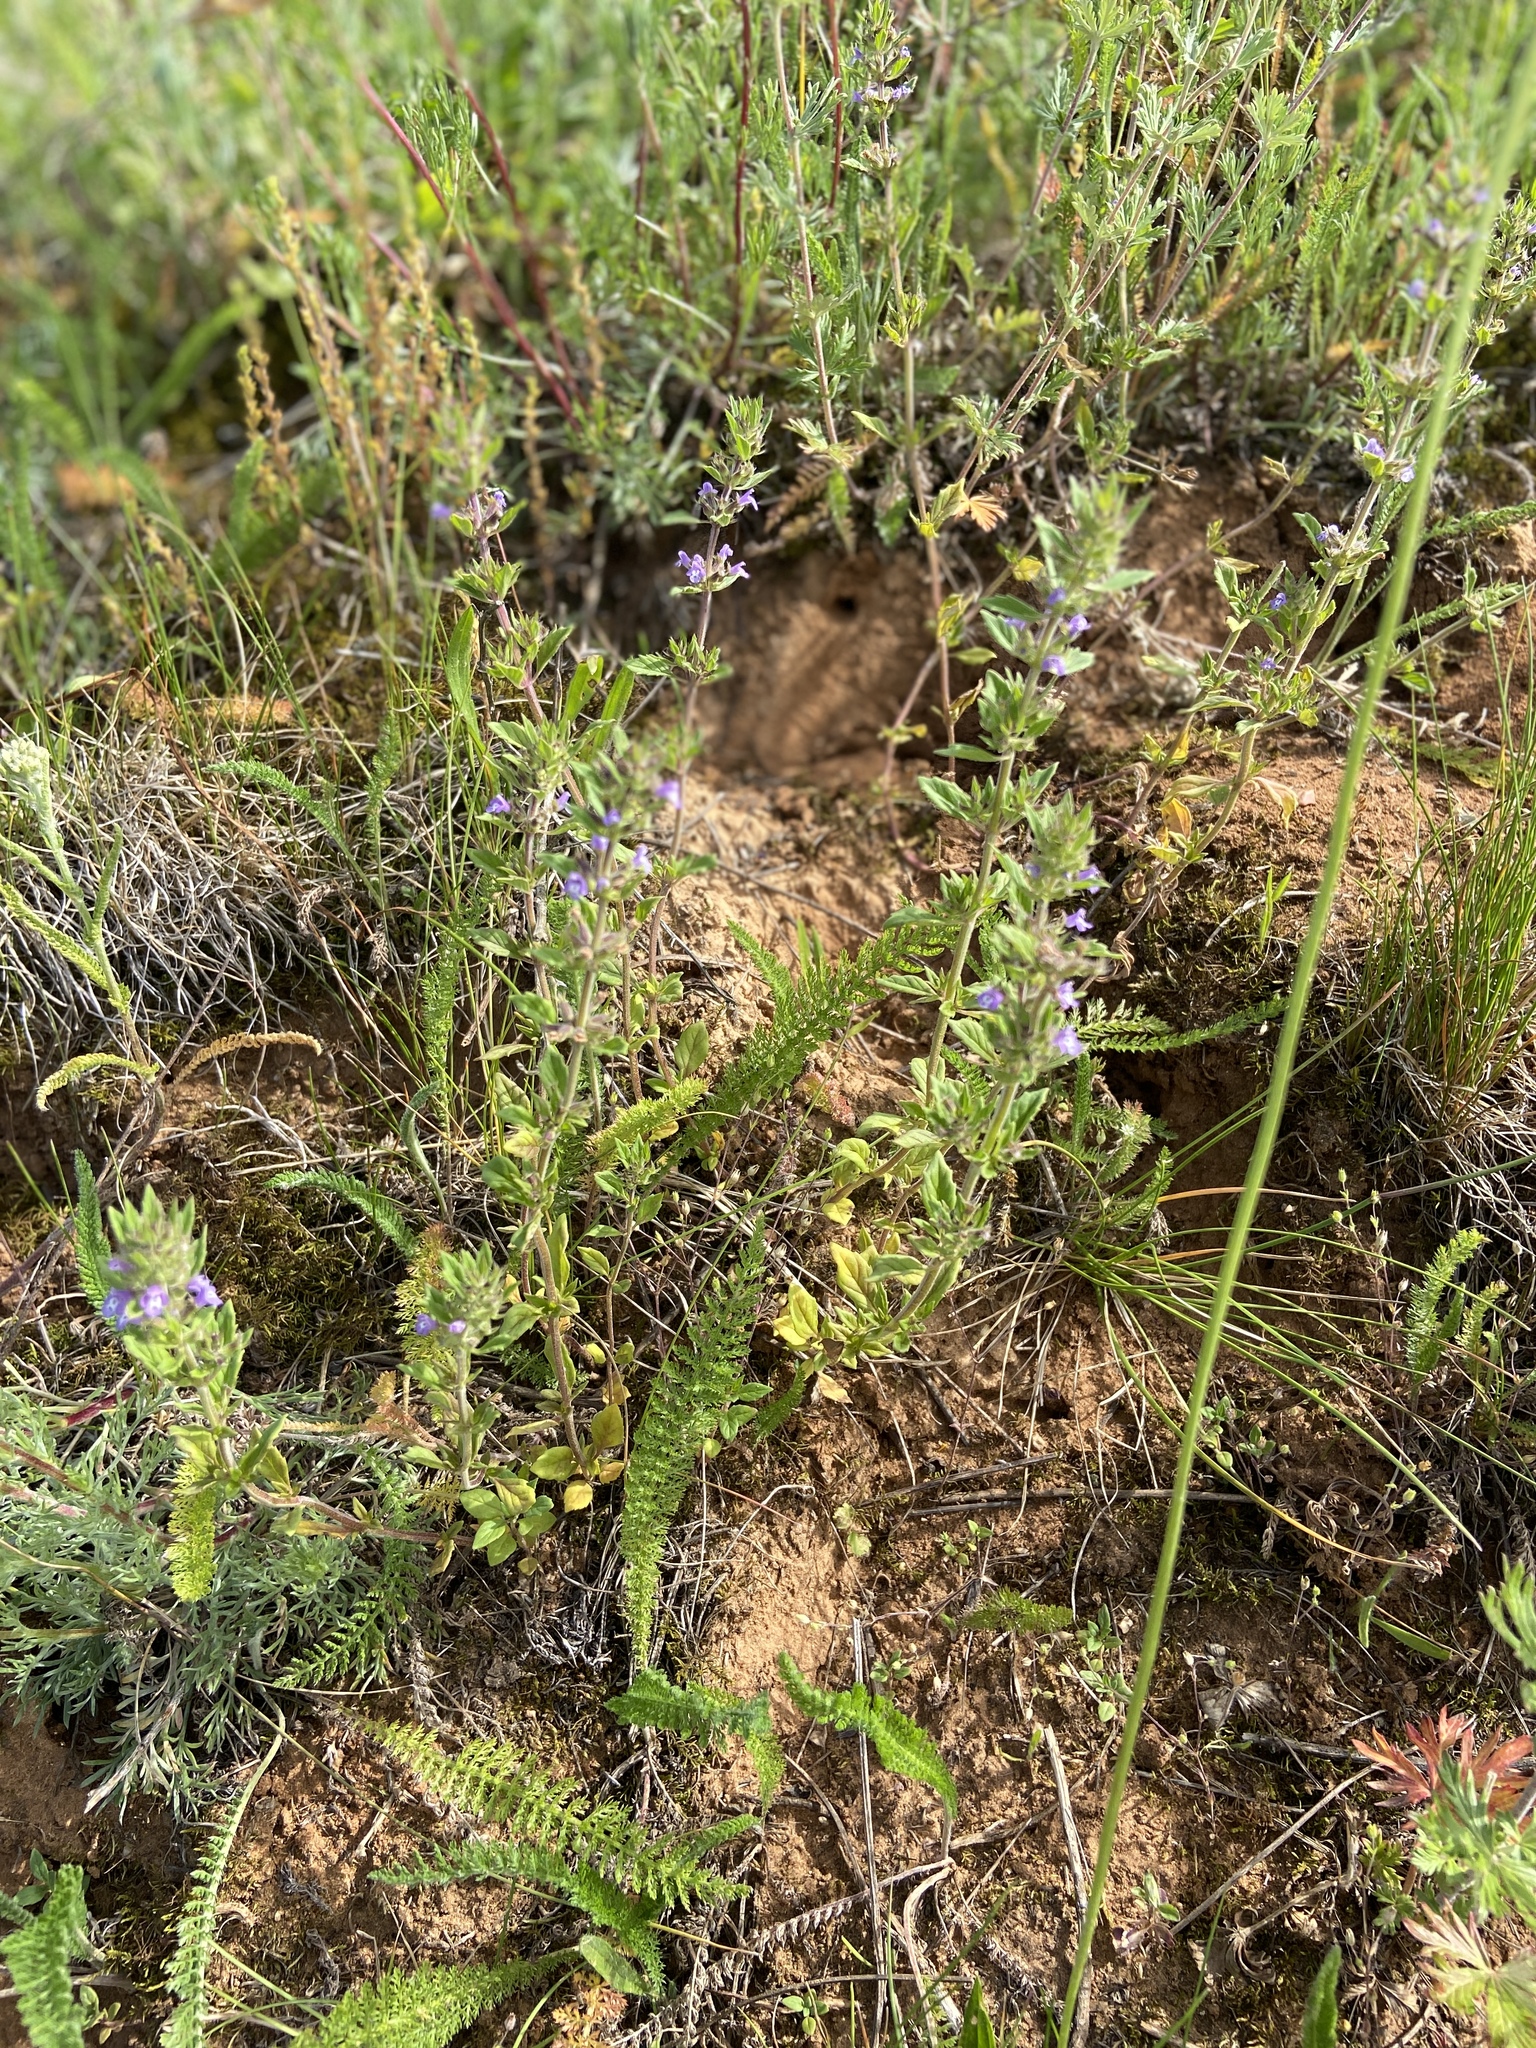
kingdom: Plantae
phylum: Tracheophyta
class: Magnoliopsida
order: Lamiales
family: Lamiaceae
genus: Clinopodium
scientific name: Clinopodium acinos
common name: Basil thyme
